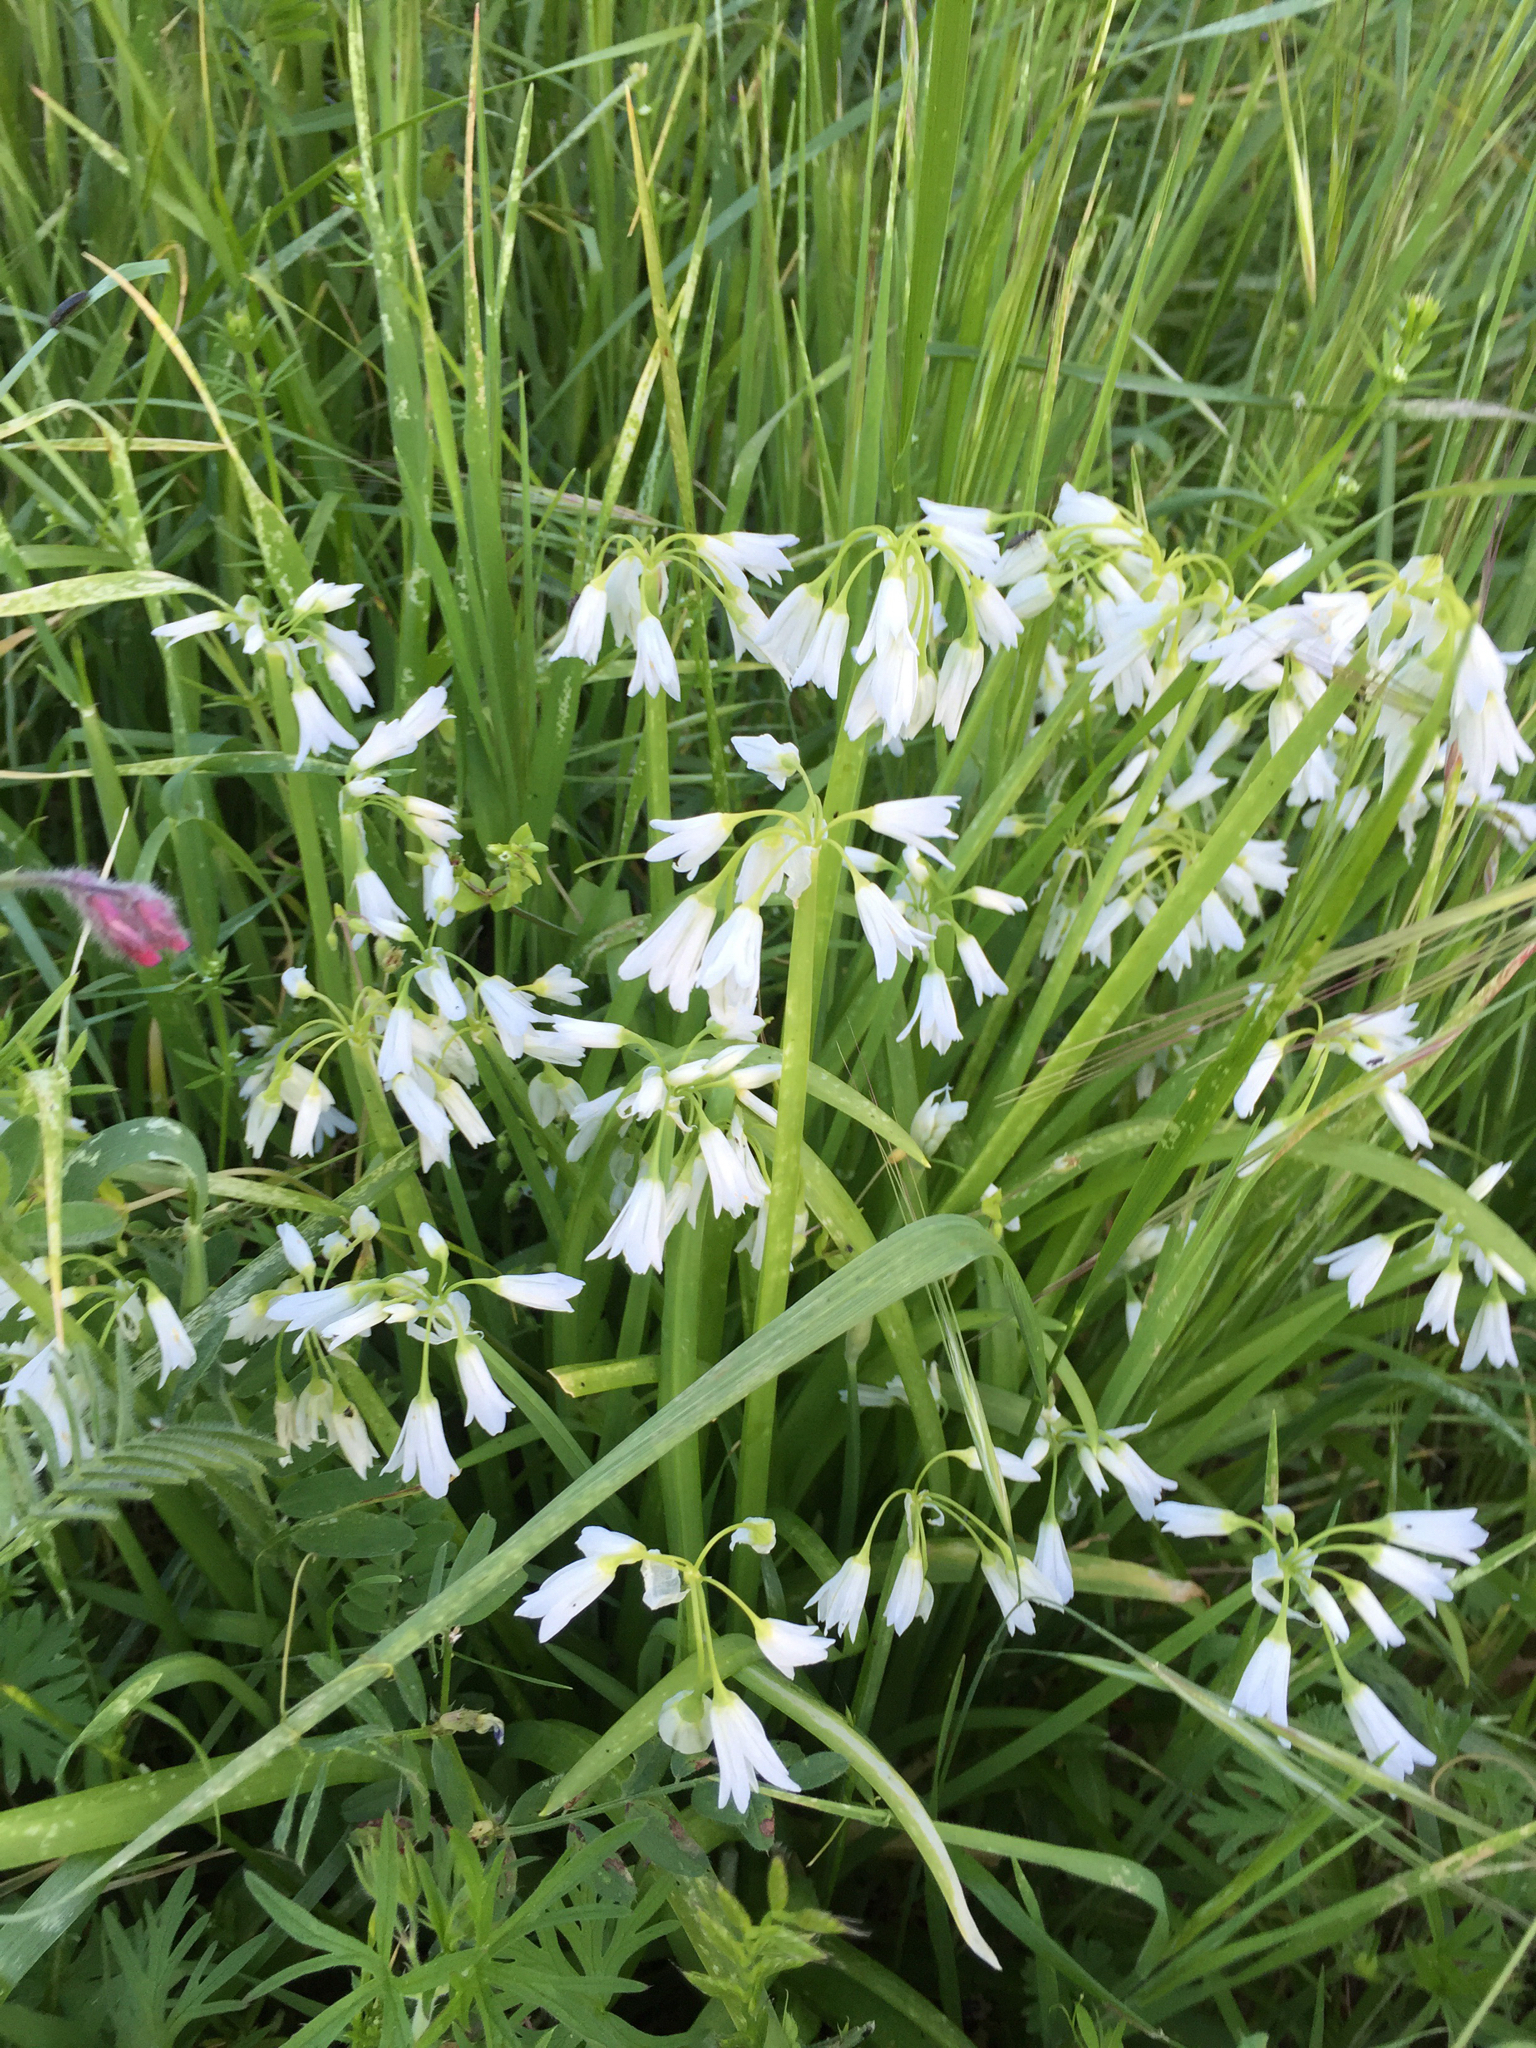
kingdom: Plantae
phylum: Tracheophyta
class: Liliopsida
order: Asparagales
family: Amaryllidaceae
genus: Allium
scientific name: Allium triquetrum
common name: Three-cornered garlic
